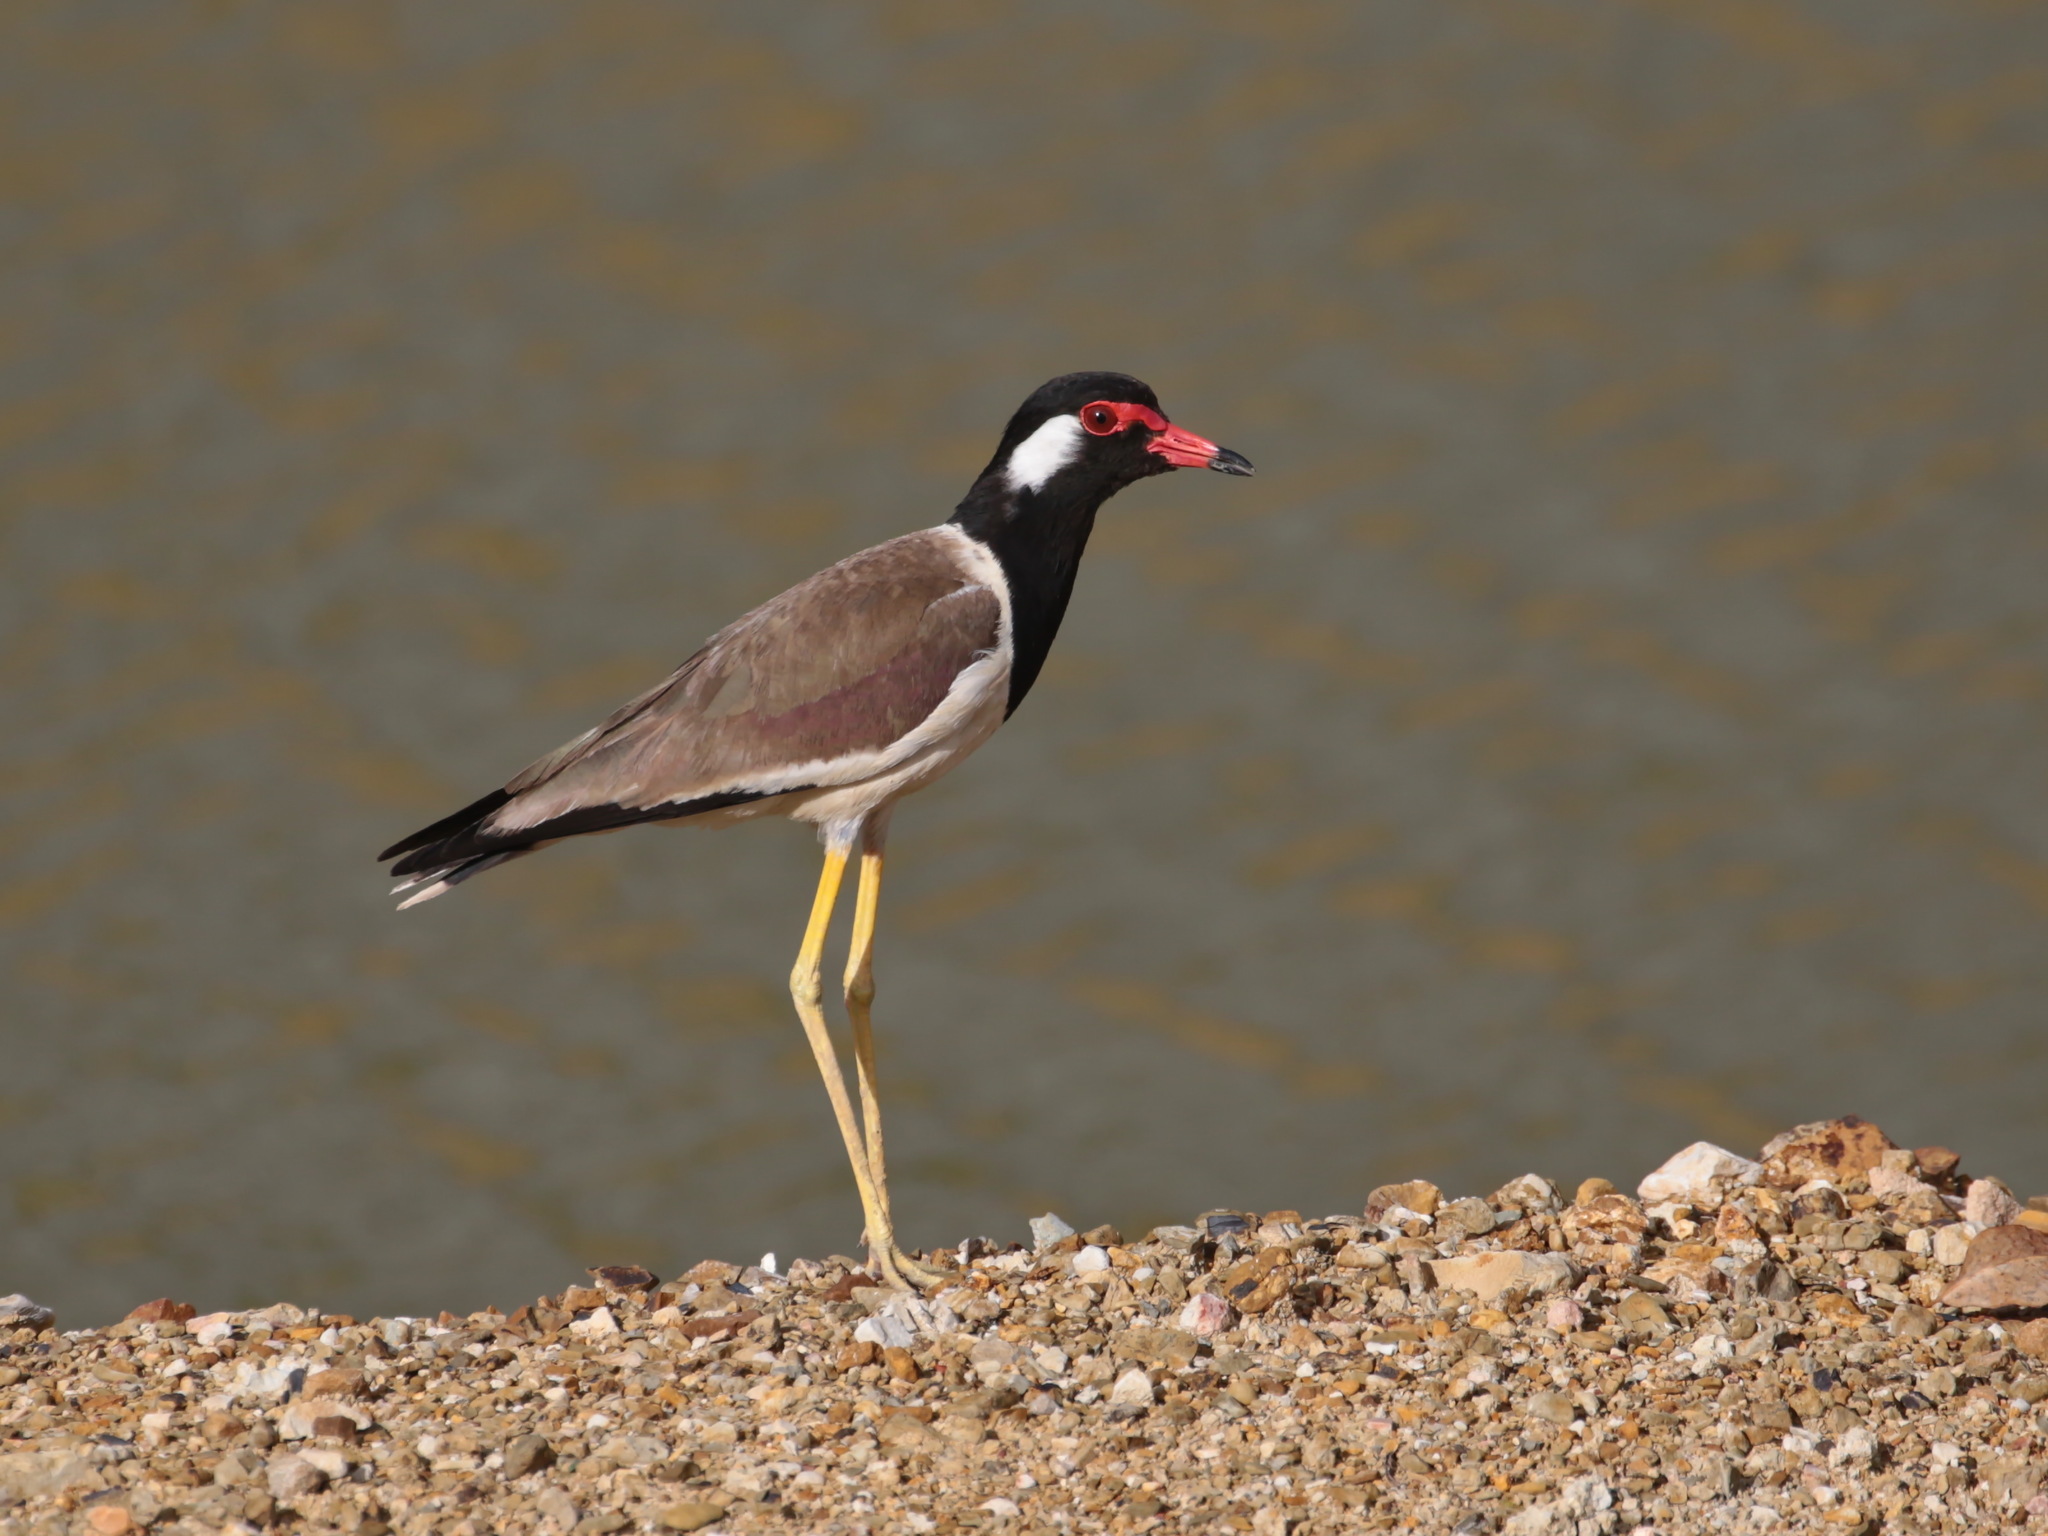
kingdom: Animalia
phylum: Chordata
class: Aves
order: Charadriiformes
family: Charadriidae
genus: Vanellus
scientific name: Vanellus indicus
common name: Red-wattled lapwing
